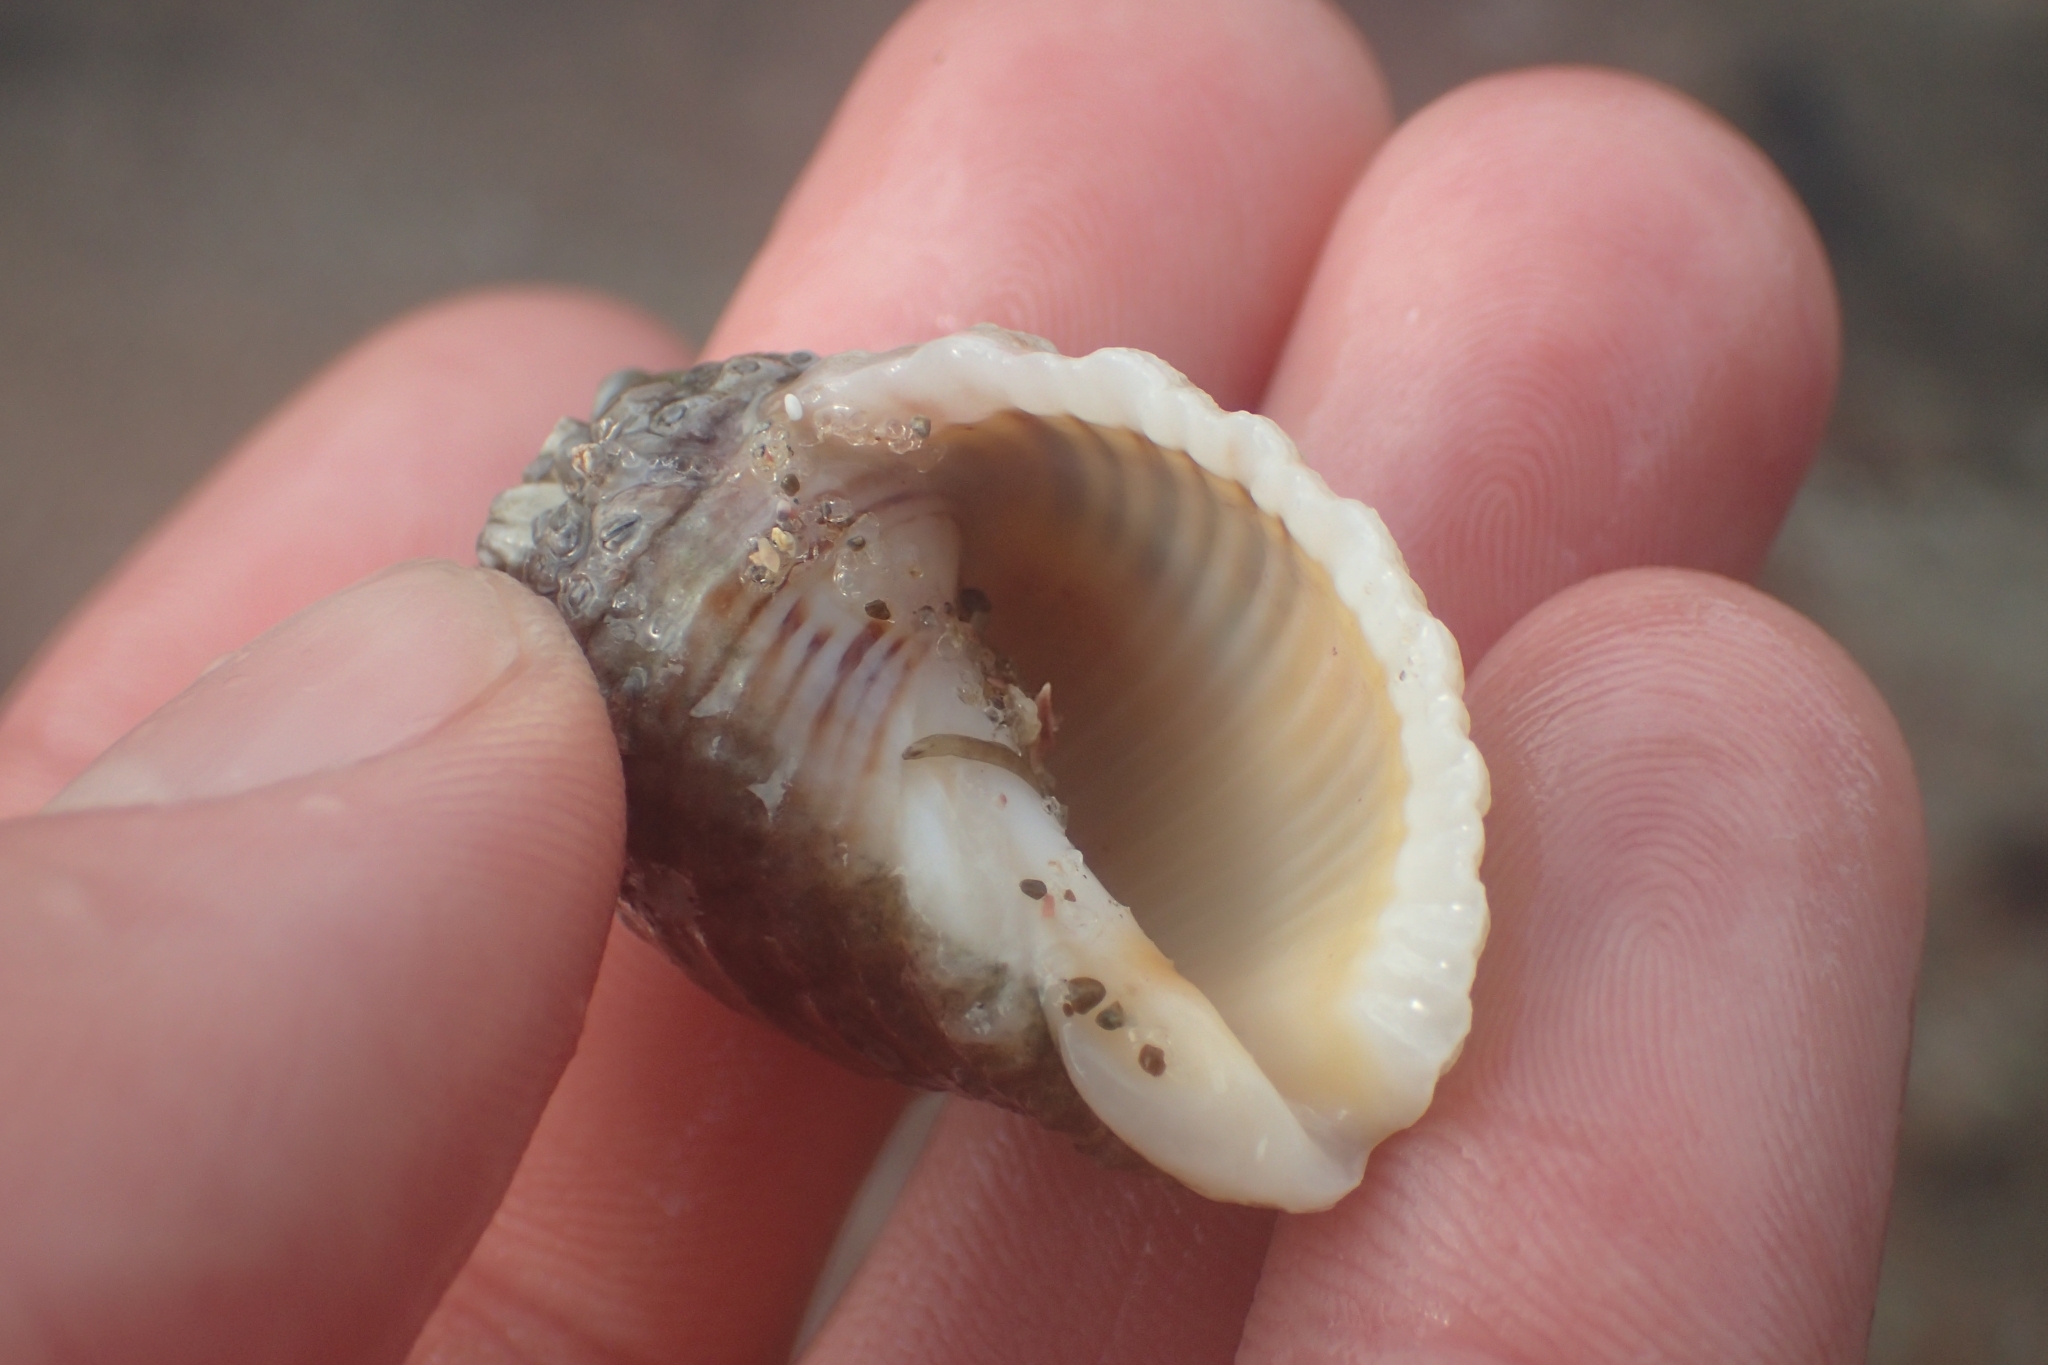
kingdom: Animalia
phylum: Mollusca
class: Gastropoda
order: Neogastropoda
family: Muricidae
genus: Dicathais
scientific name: Dicathais orbita
